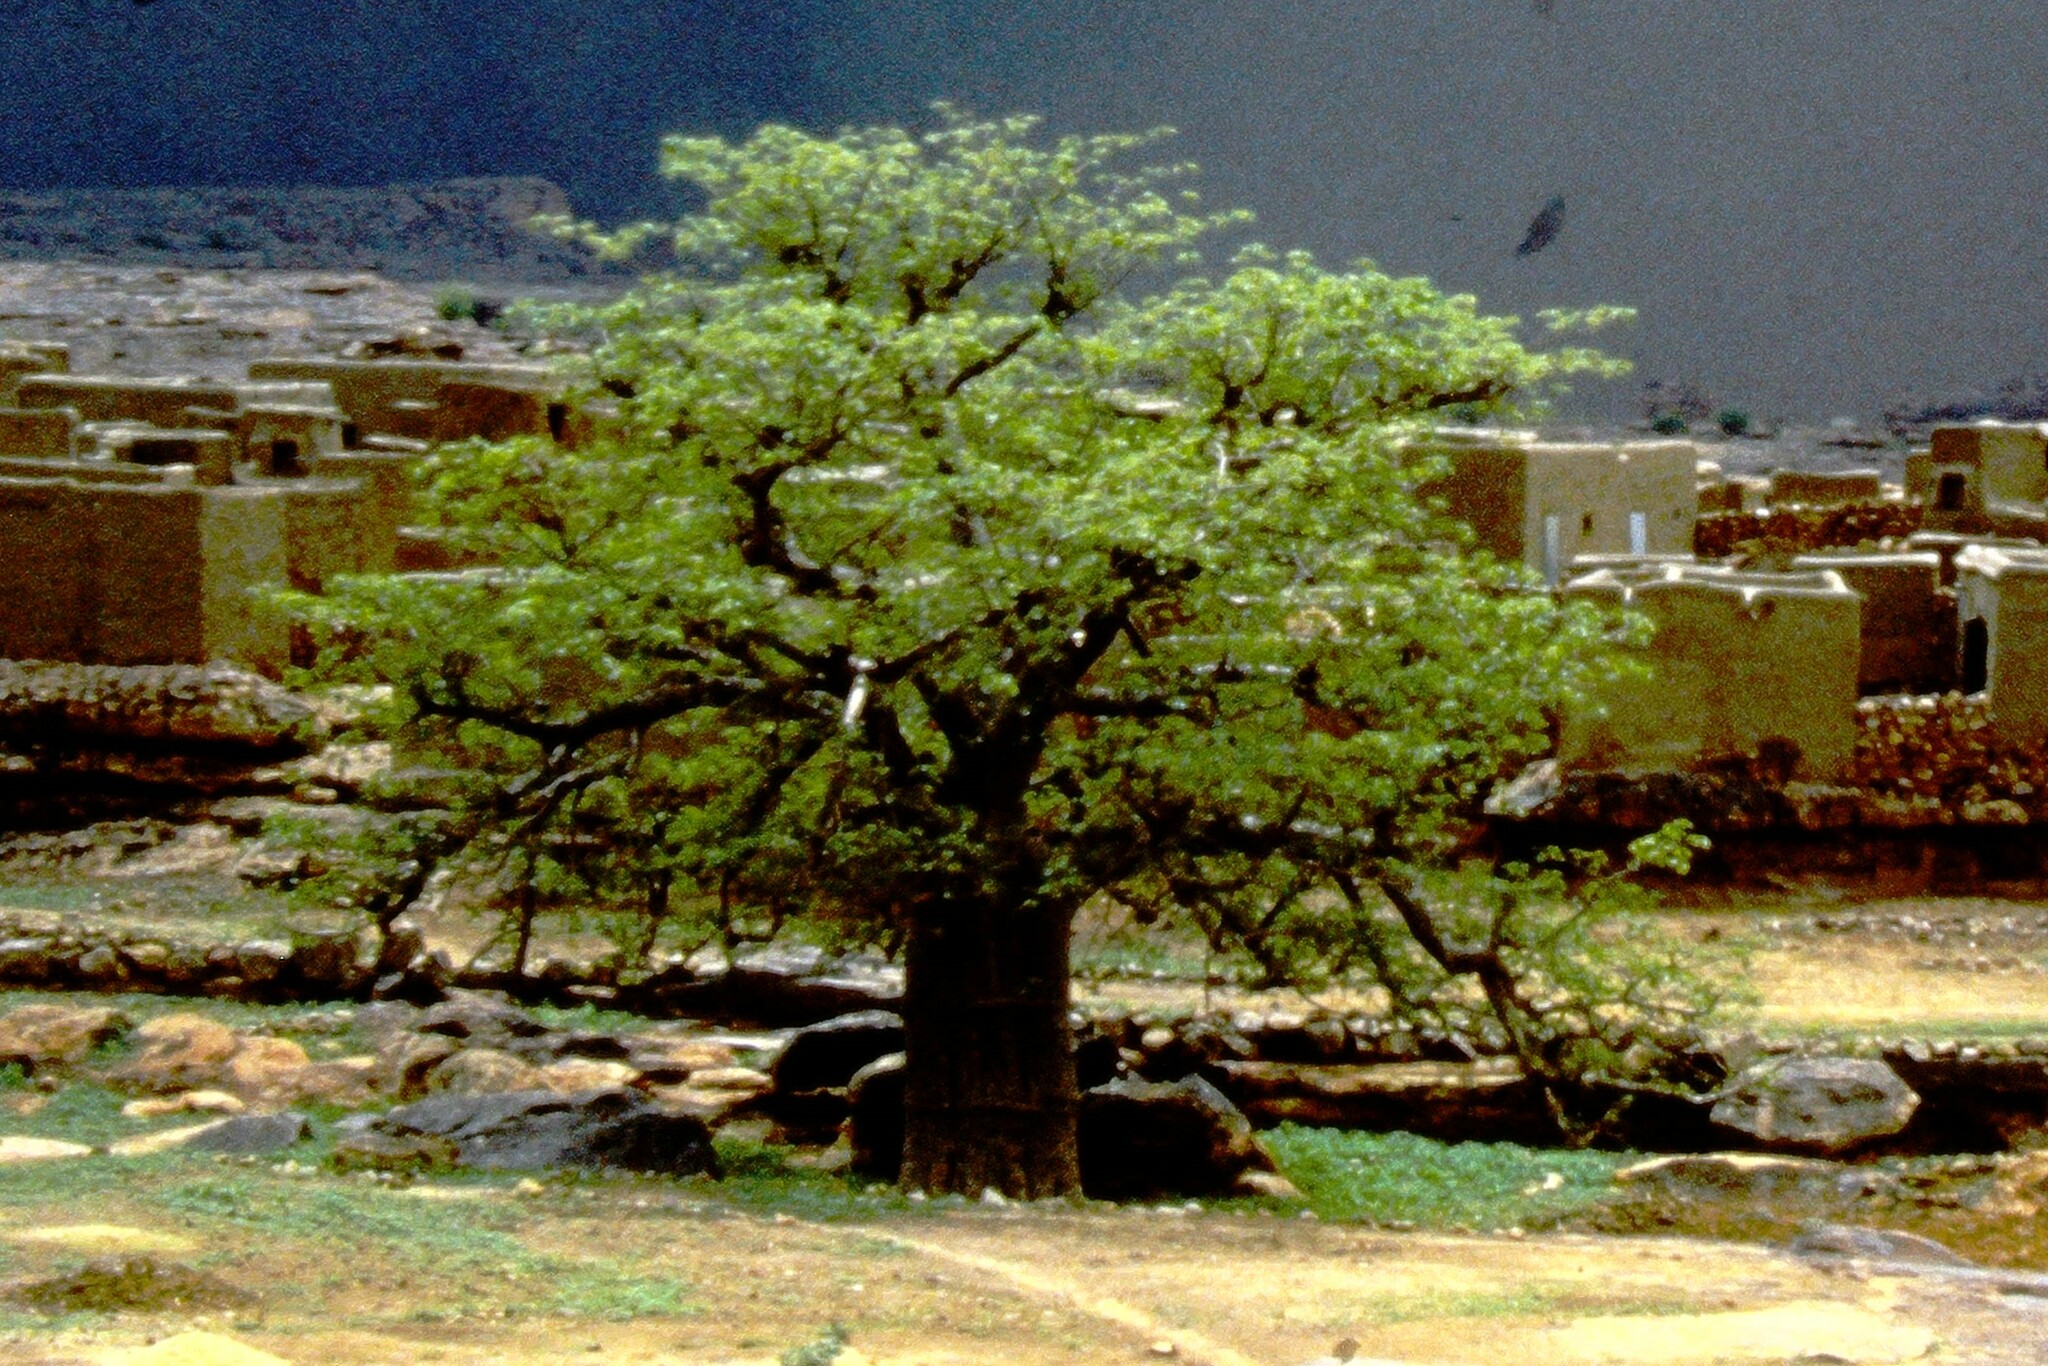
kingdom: Plantae
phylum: Tracheophyta
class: Magnoliopsida
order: Malvales
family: Malvaceae
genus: Adansonia
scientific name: Adansonia digitata
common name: Dead-rat-tree
